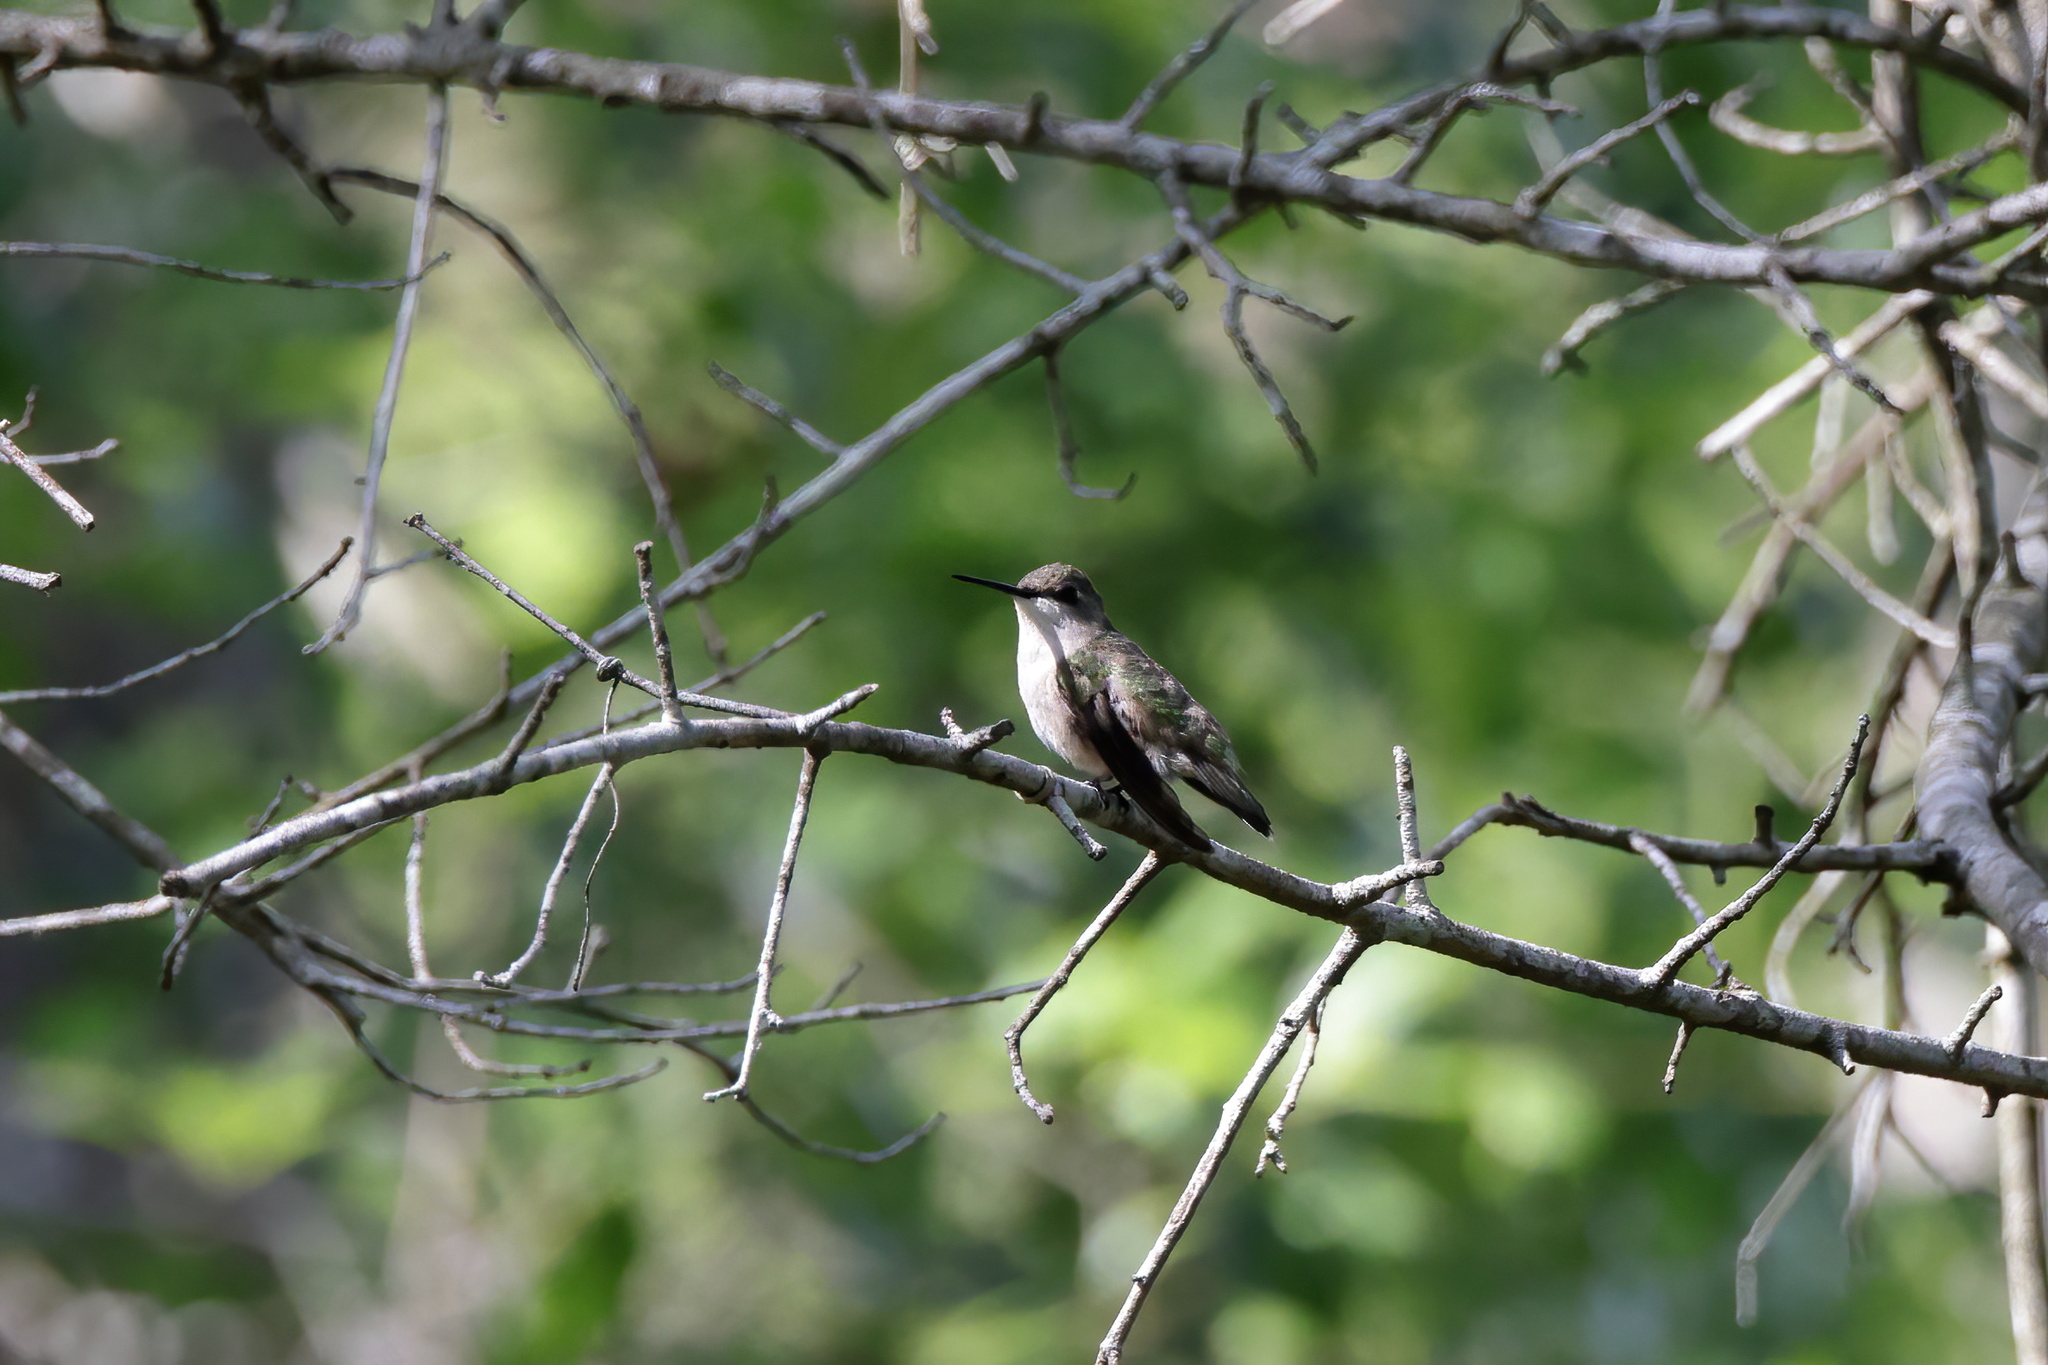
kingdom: Animalia
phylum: Chordata
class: Aves
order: Apodiformes
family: Trochilidae
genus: Archilochus
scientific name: Archilochus colubris
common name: Ruby-throated hummingbird
